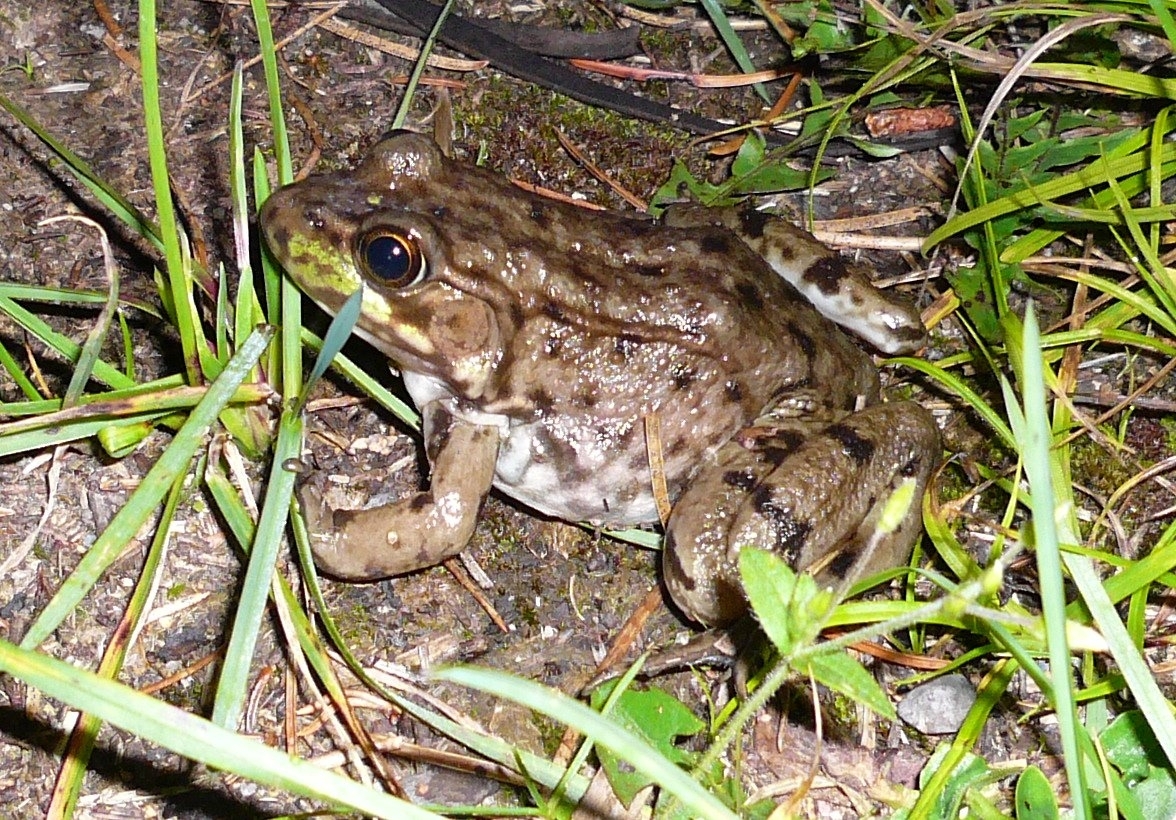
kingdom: Animalia
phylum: Chordata
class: Amphibia
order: Anura
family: Ranidae
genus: Lithobates
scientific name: Lithobates clamitans
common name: Green frog
